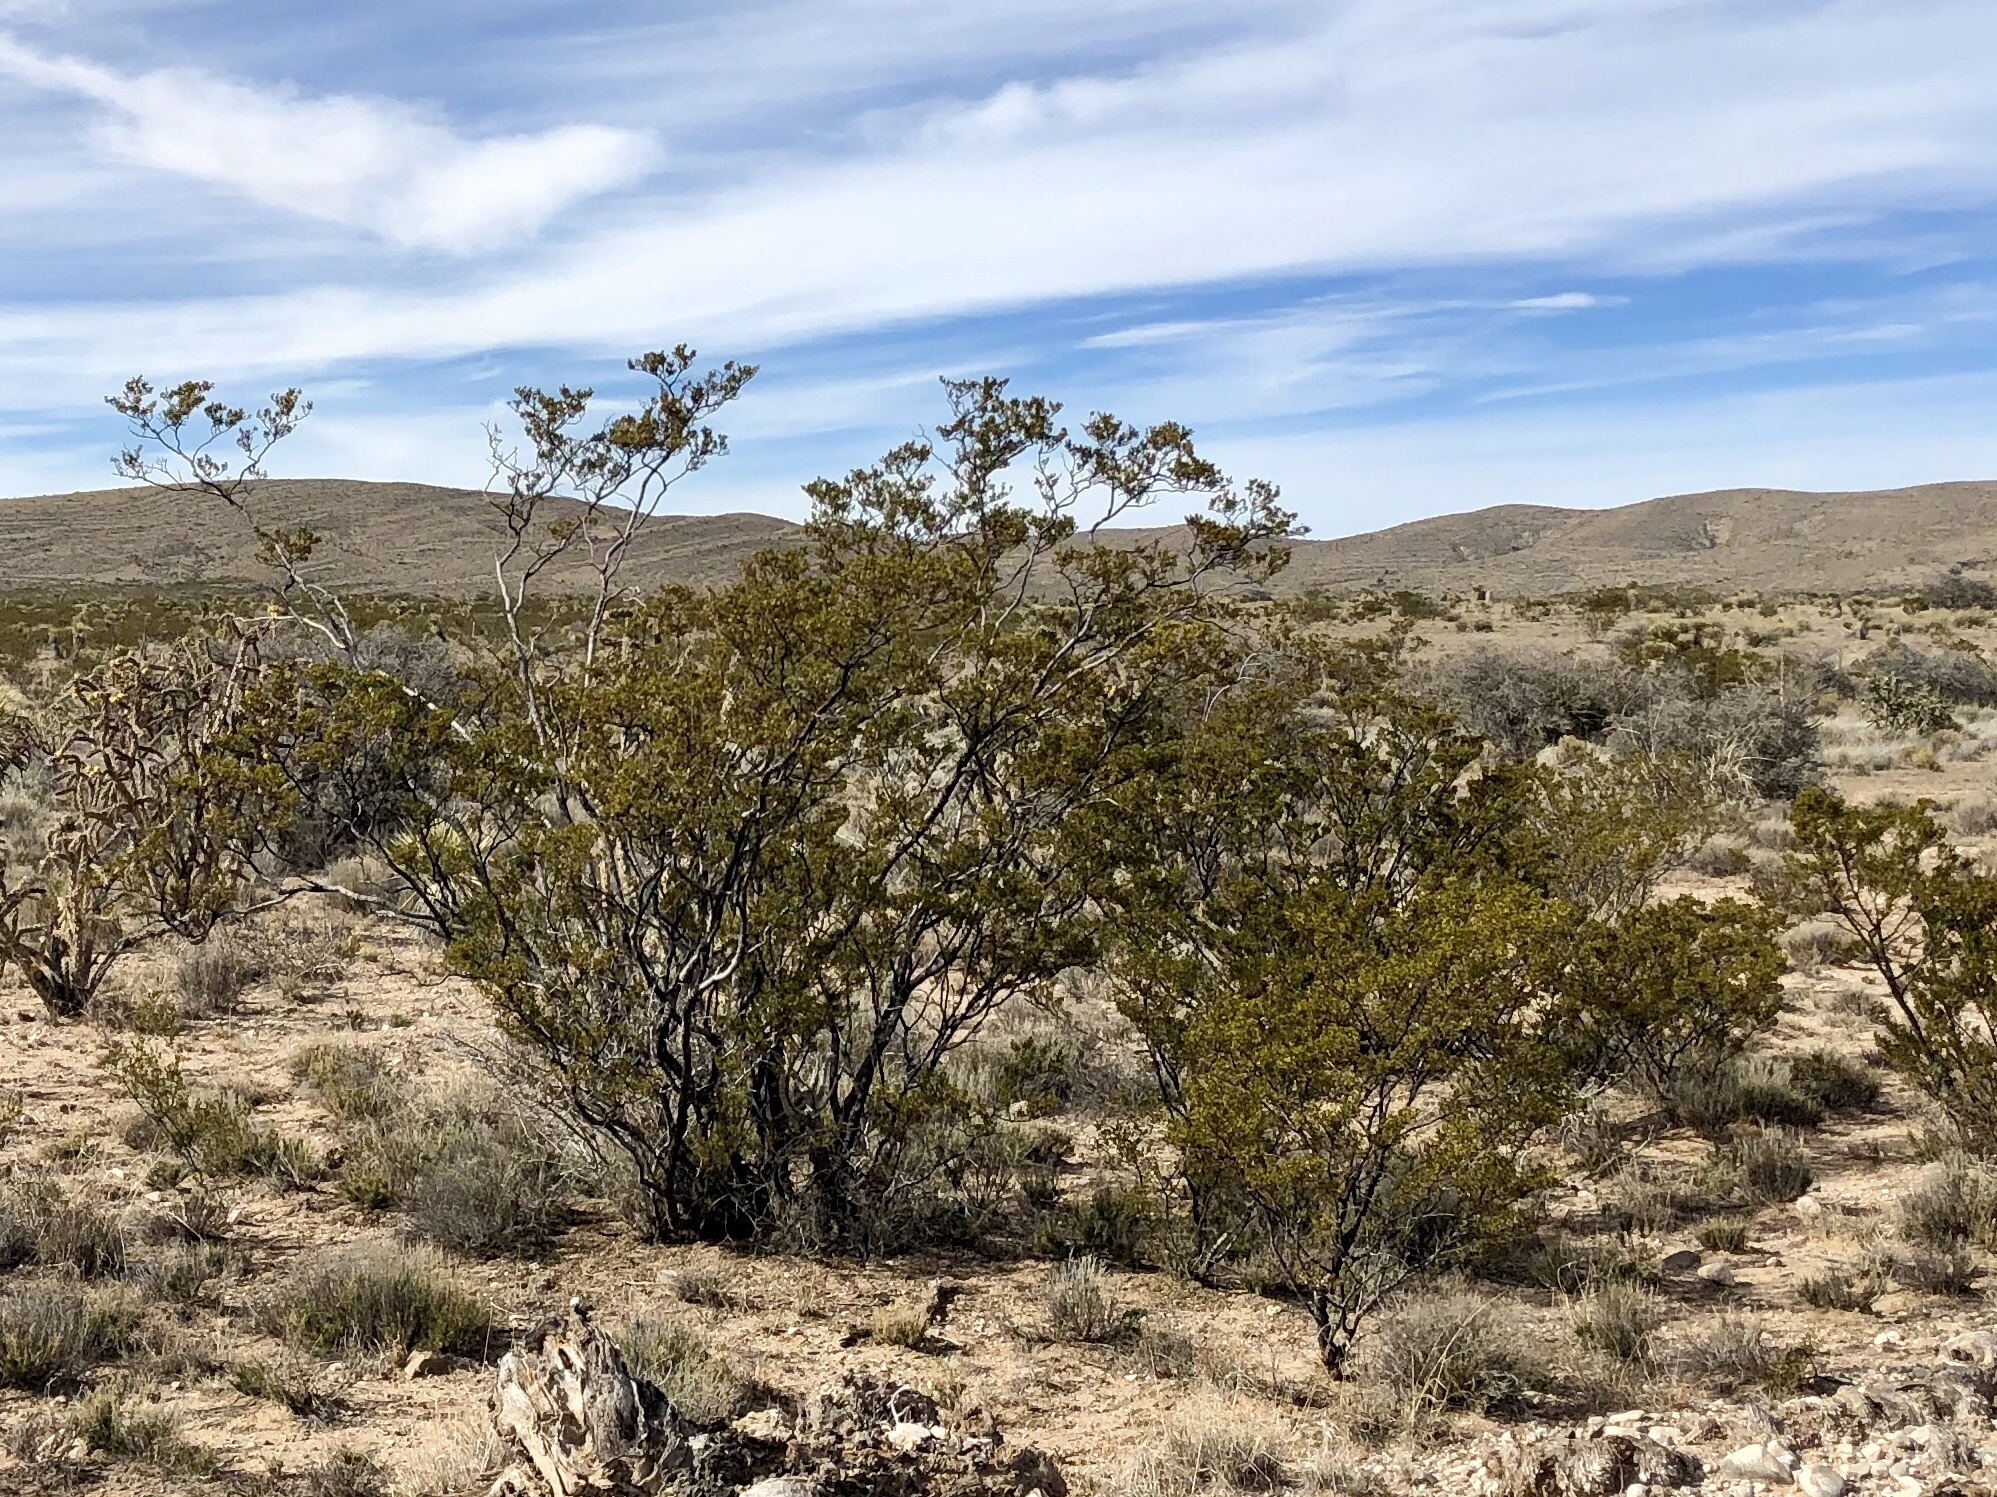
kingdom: Plantae
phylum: Tracheophyta
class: Magnoliopsida
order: Zygophyllales
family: Zygophyllaceae
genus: Larrea
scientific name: Larrea tridentata
